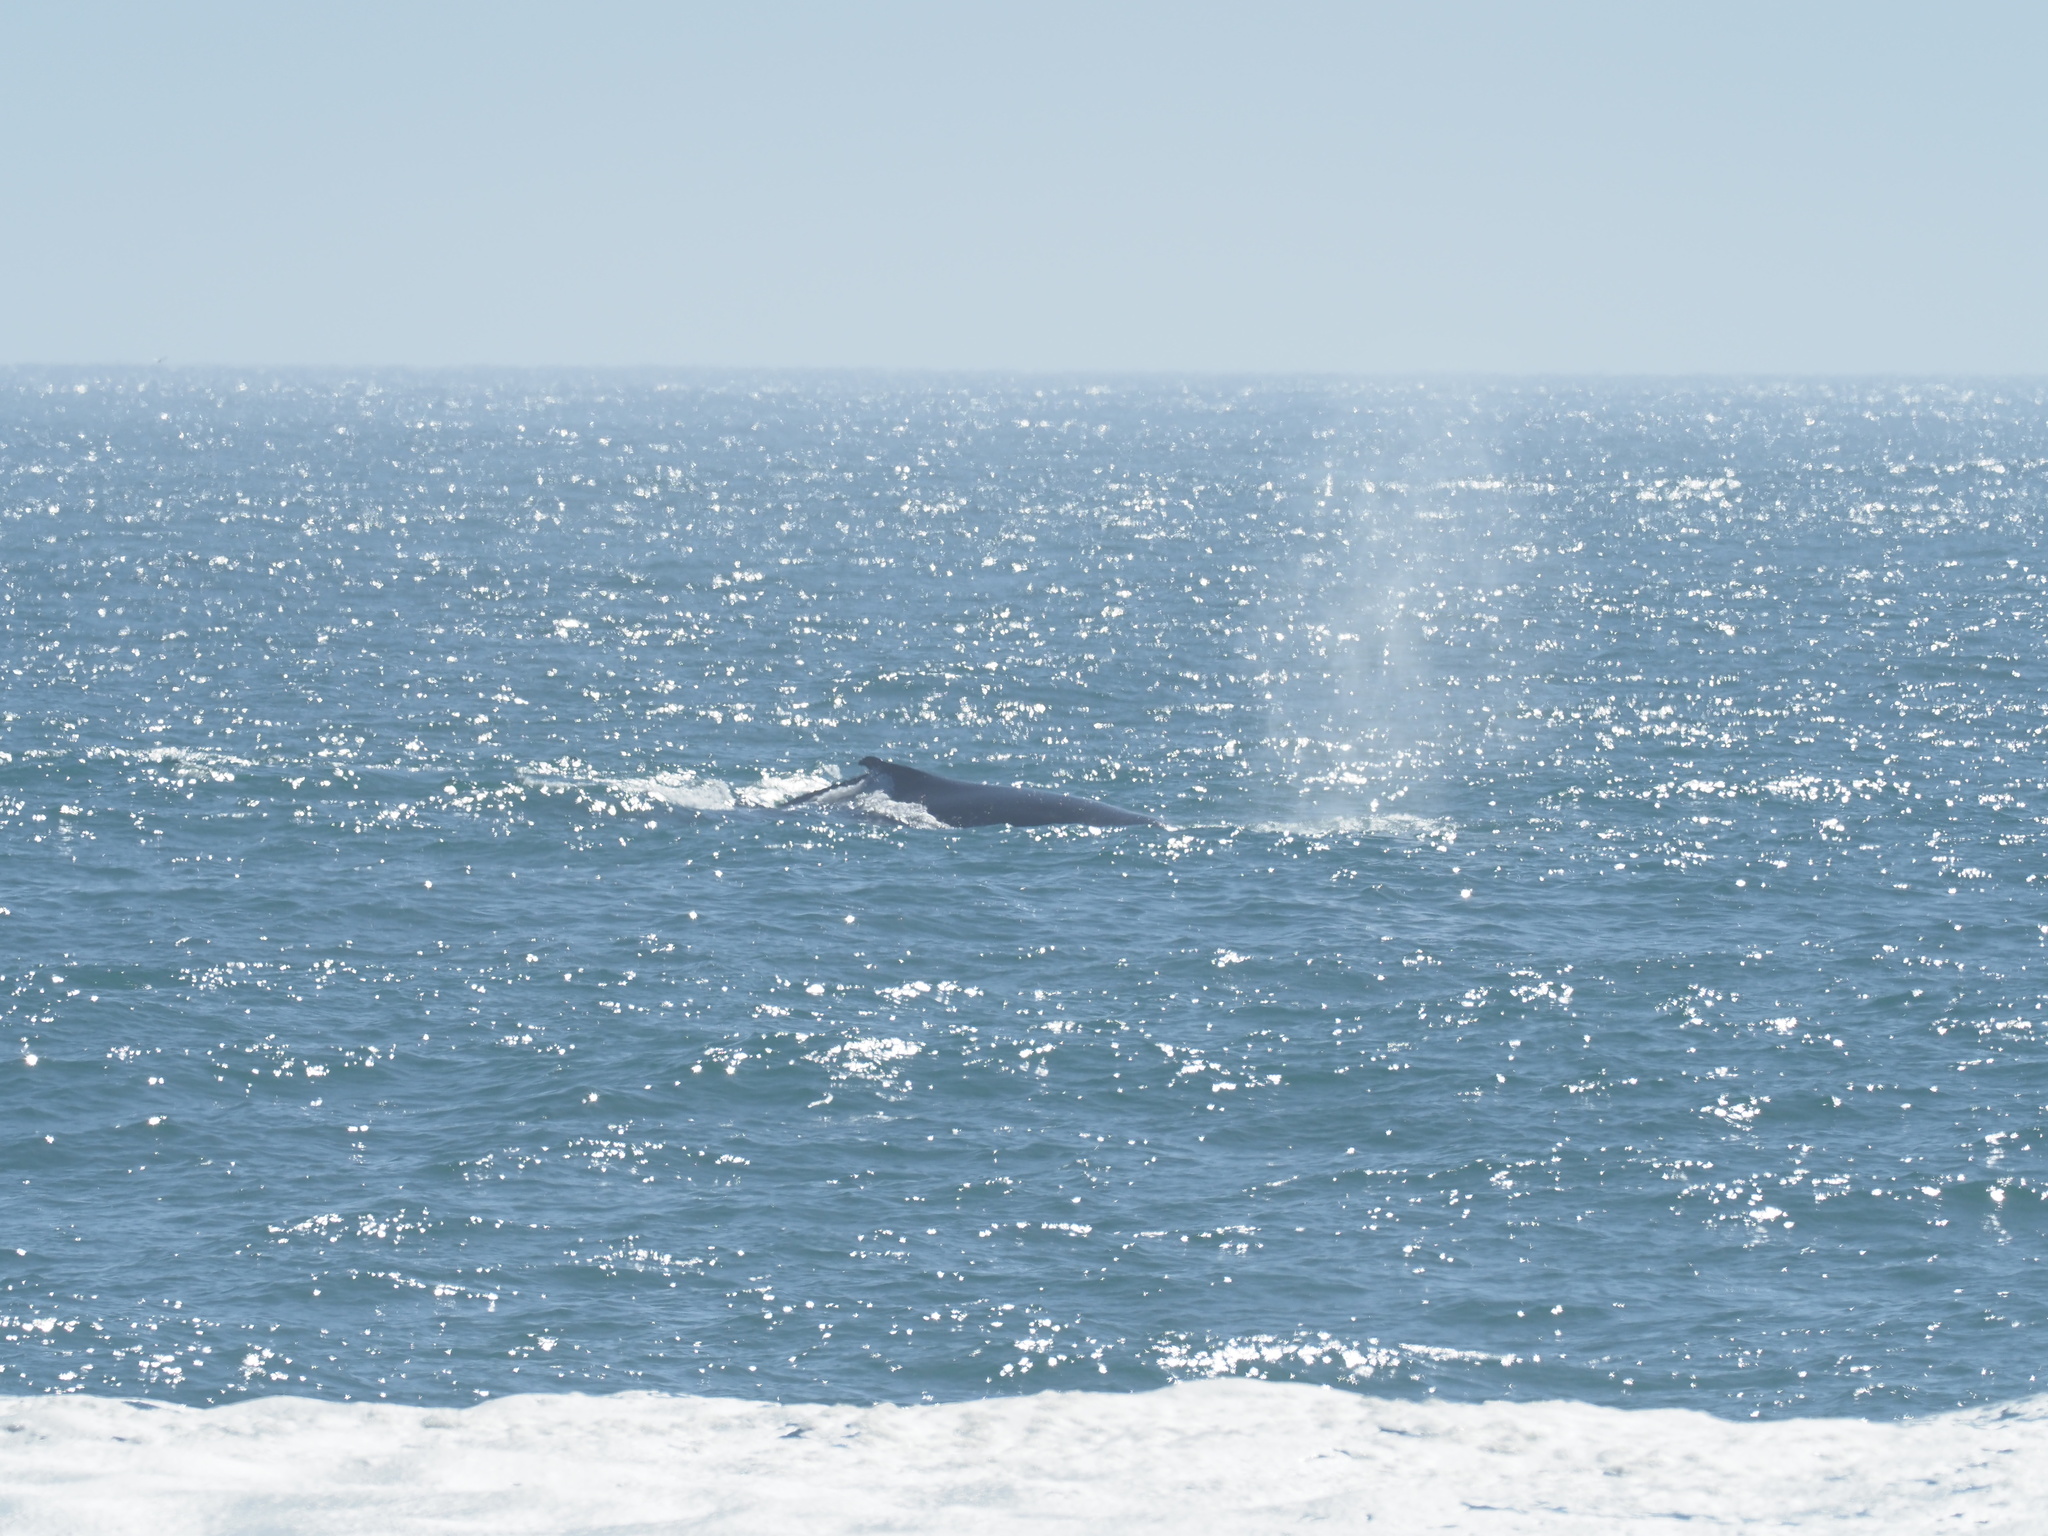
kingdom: Animalia
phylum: Chordata
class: Mammalia
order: Cetacea
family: Balaenopteridae
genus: Megaptera
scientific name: Megaptera novaeangliae
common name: Humpback whale
